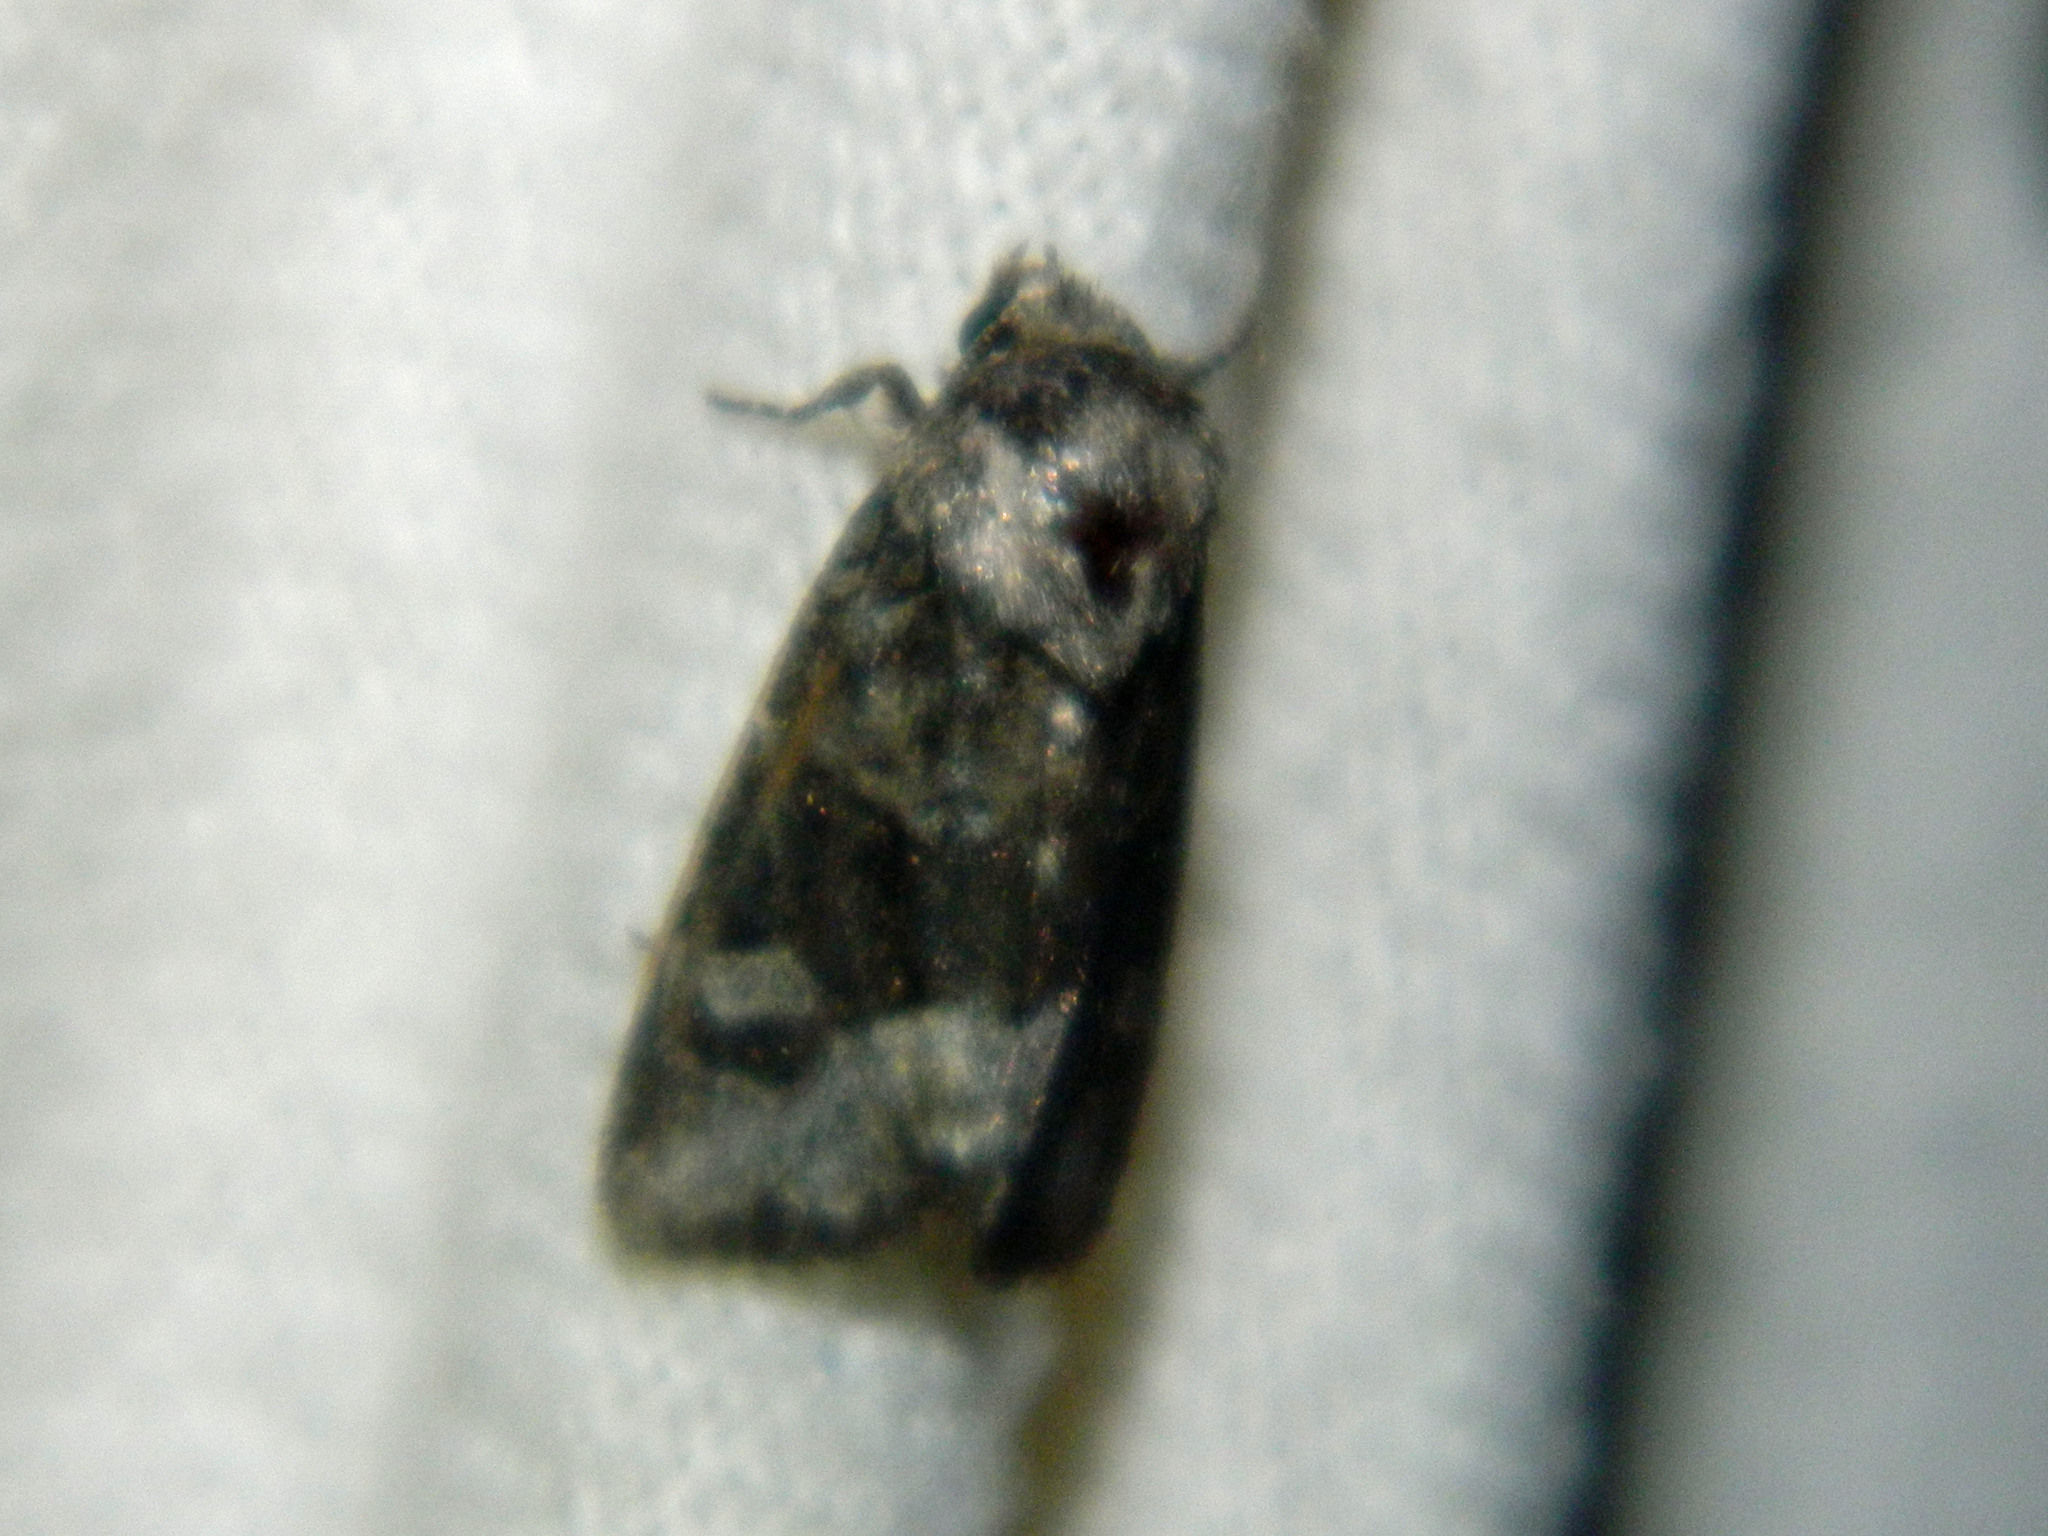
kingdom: Animalia
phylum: Arthropoda
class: Insecta
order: Lepidoptera
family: Noctuidae
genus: Lacinipolia
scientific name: Lacinipolia olivacea
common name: Olive arches moth
